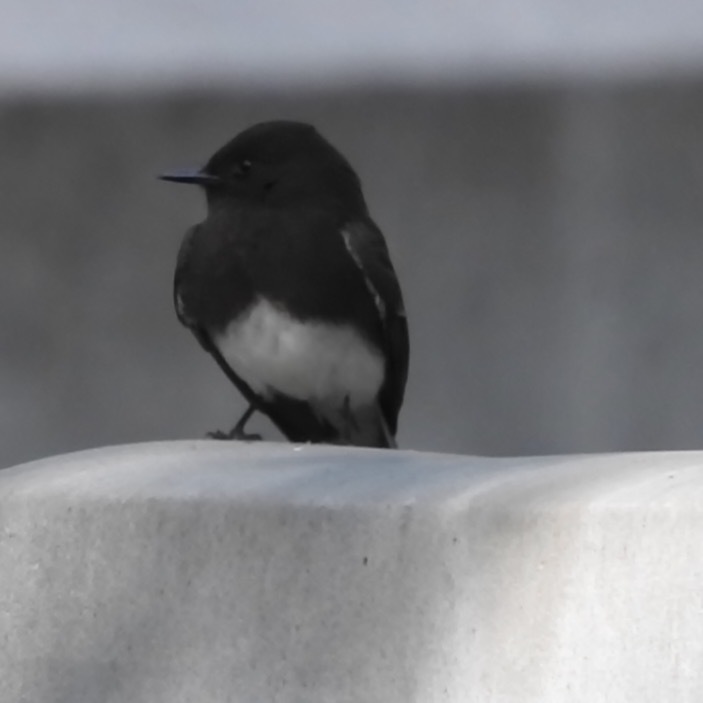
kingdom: Animalia
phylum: Chordata
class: Aves
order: Passeriformes
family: Tyrannidae
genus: Sayornis
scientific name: Sayornis nigricans
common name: Black phoebe
